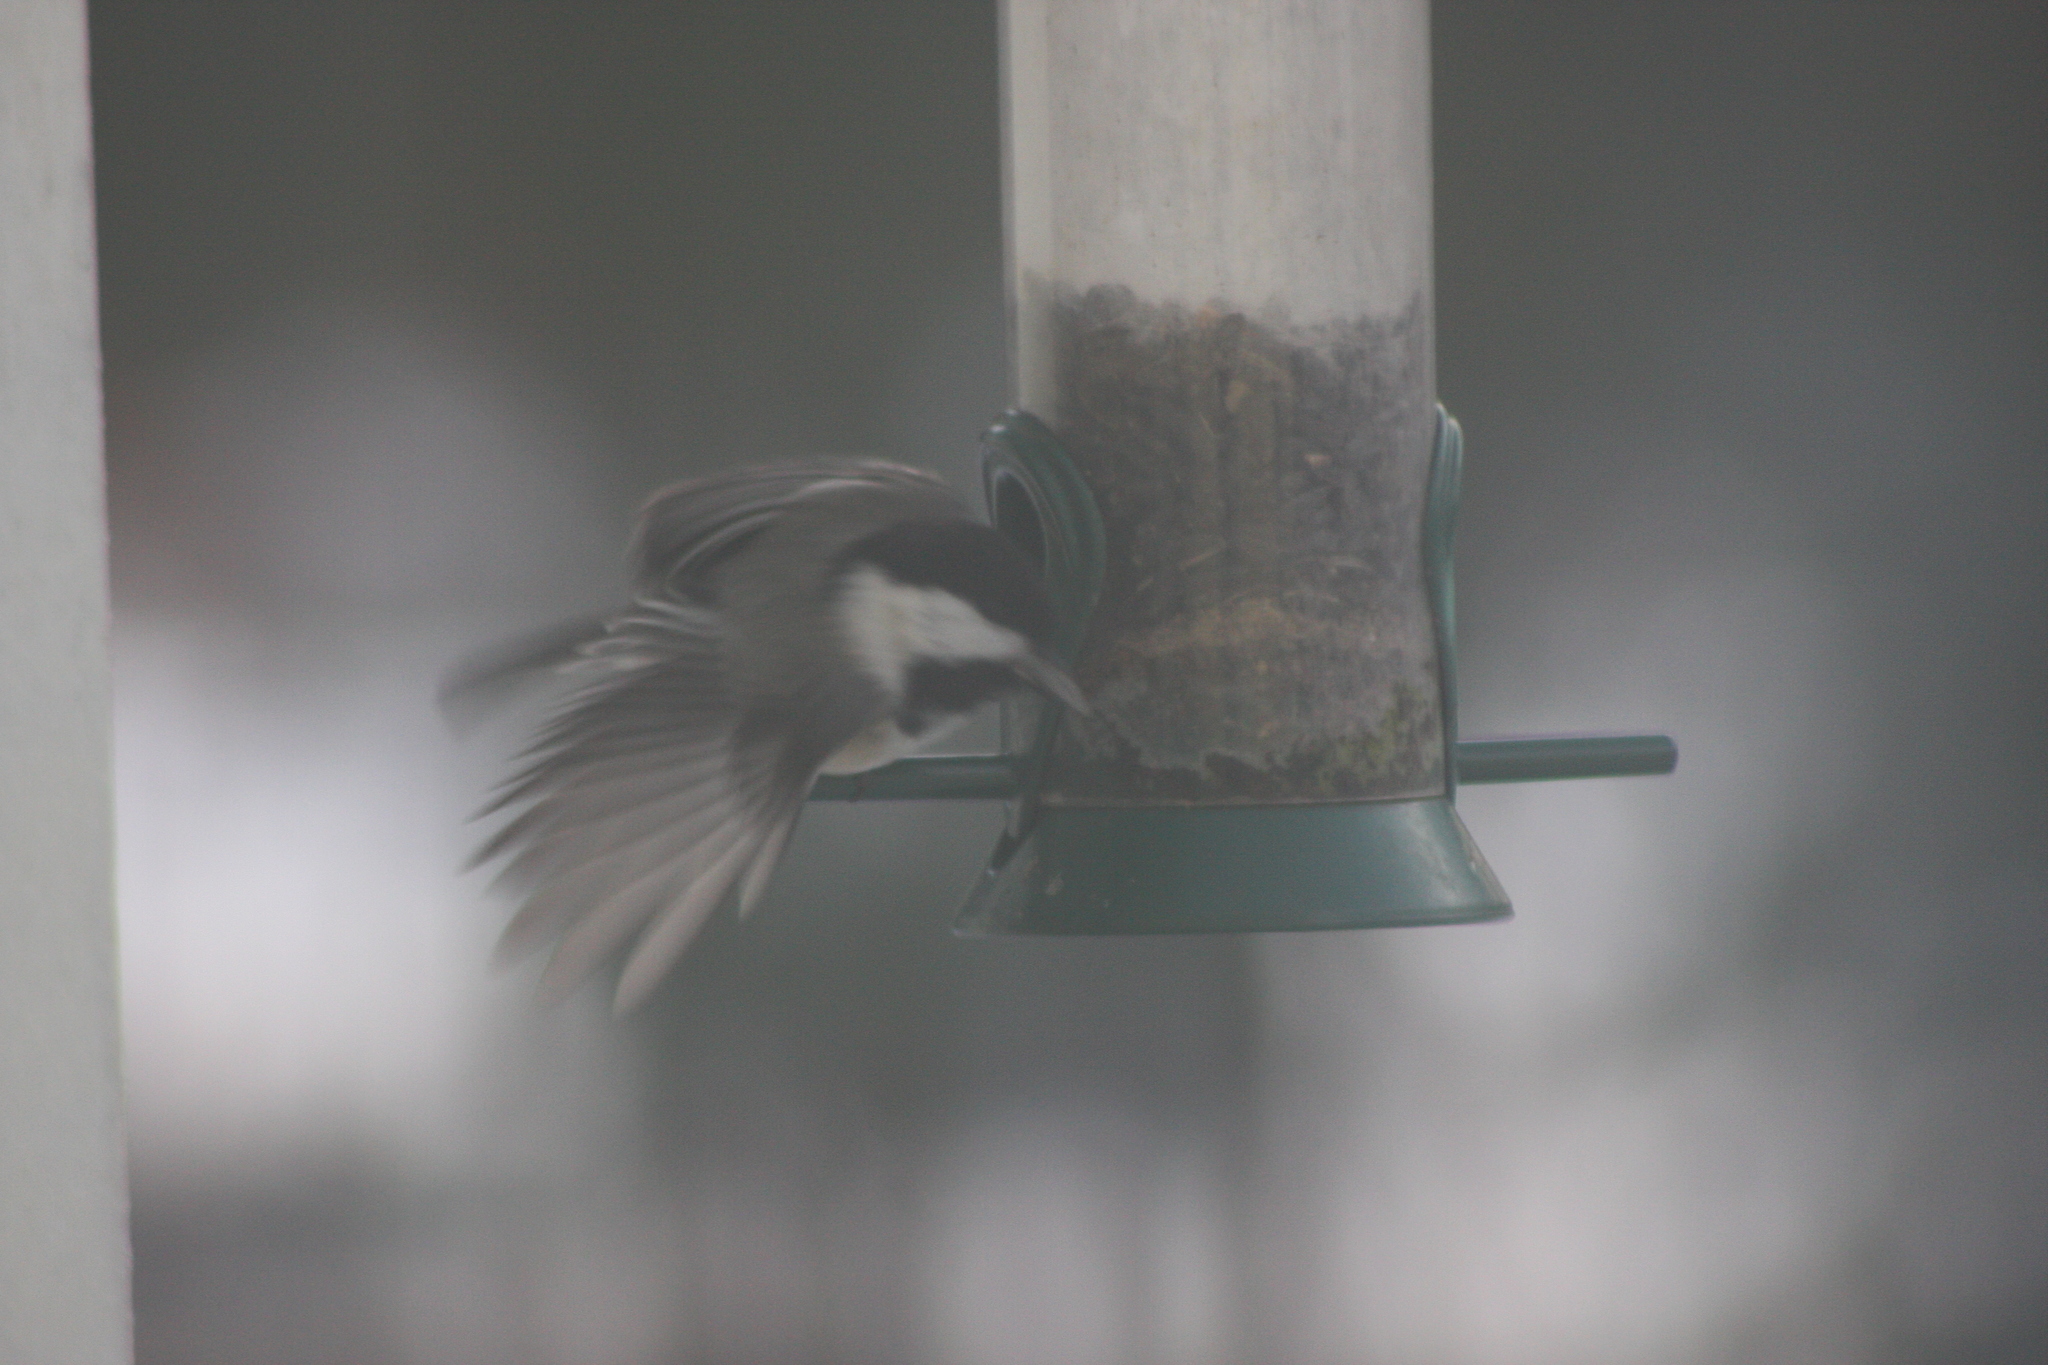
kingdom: Animalia
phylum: Chordata
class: Aves
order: Passeriformes
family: Paridae
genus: Poecile
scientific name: Poecile atricapillus
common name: Black-capped chickadee
